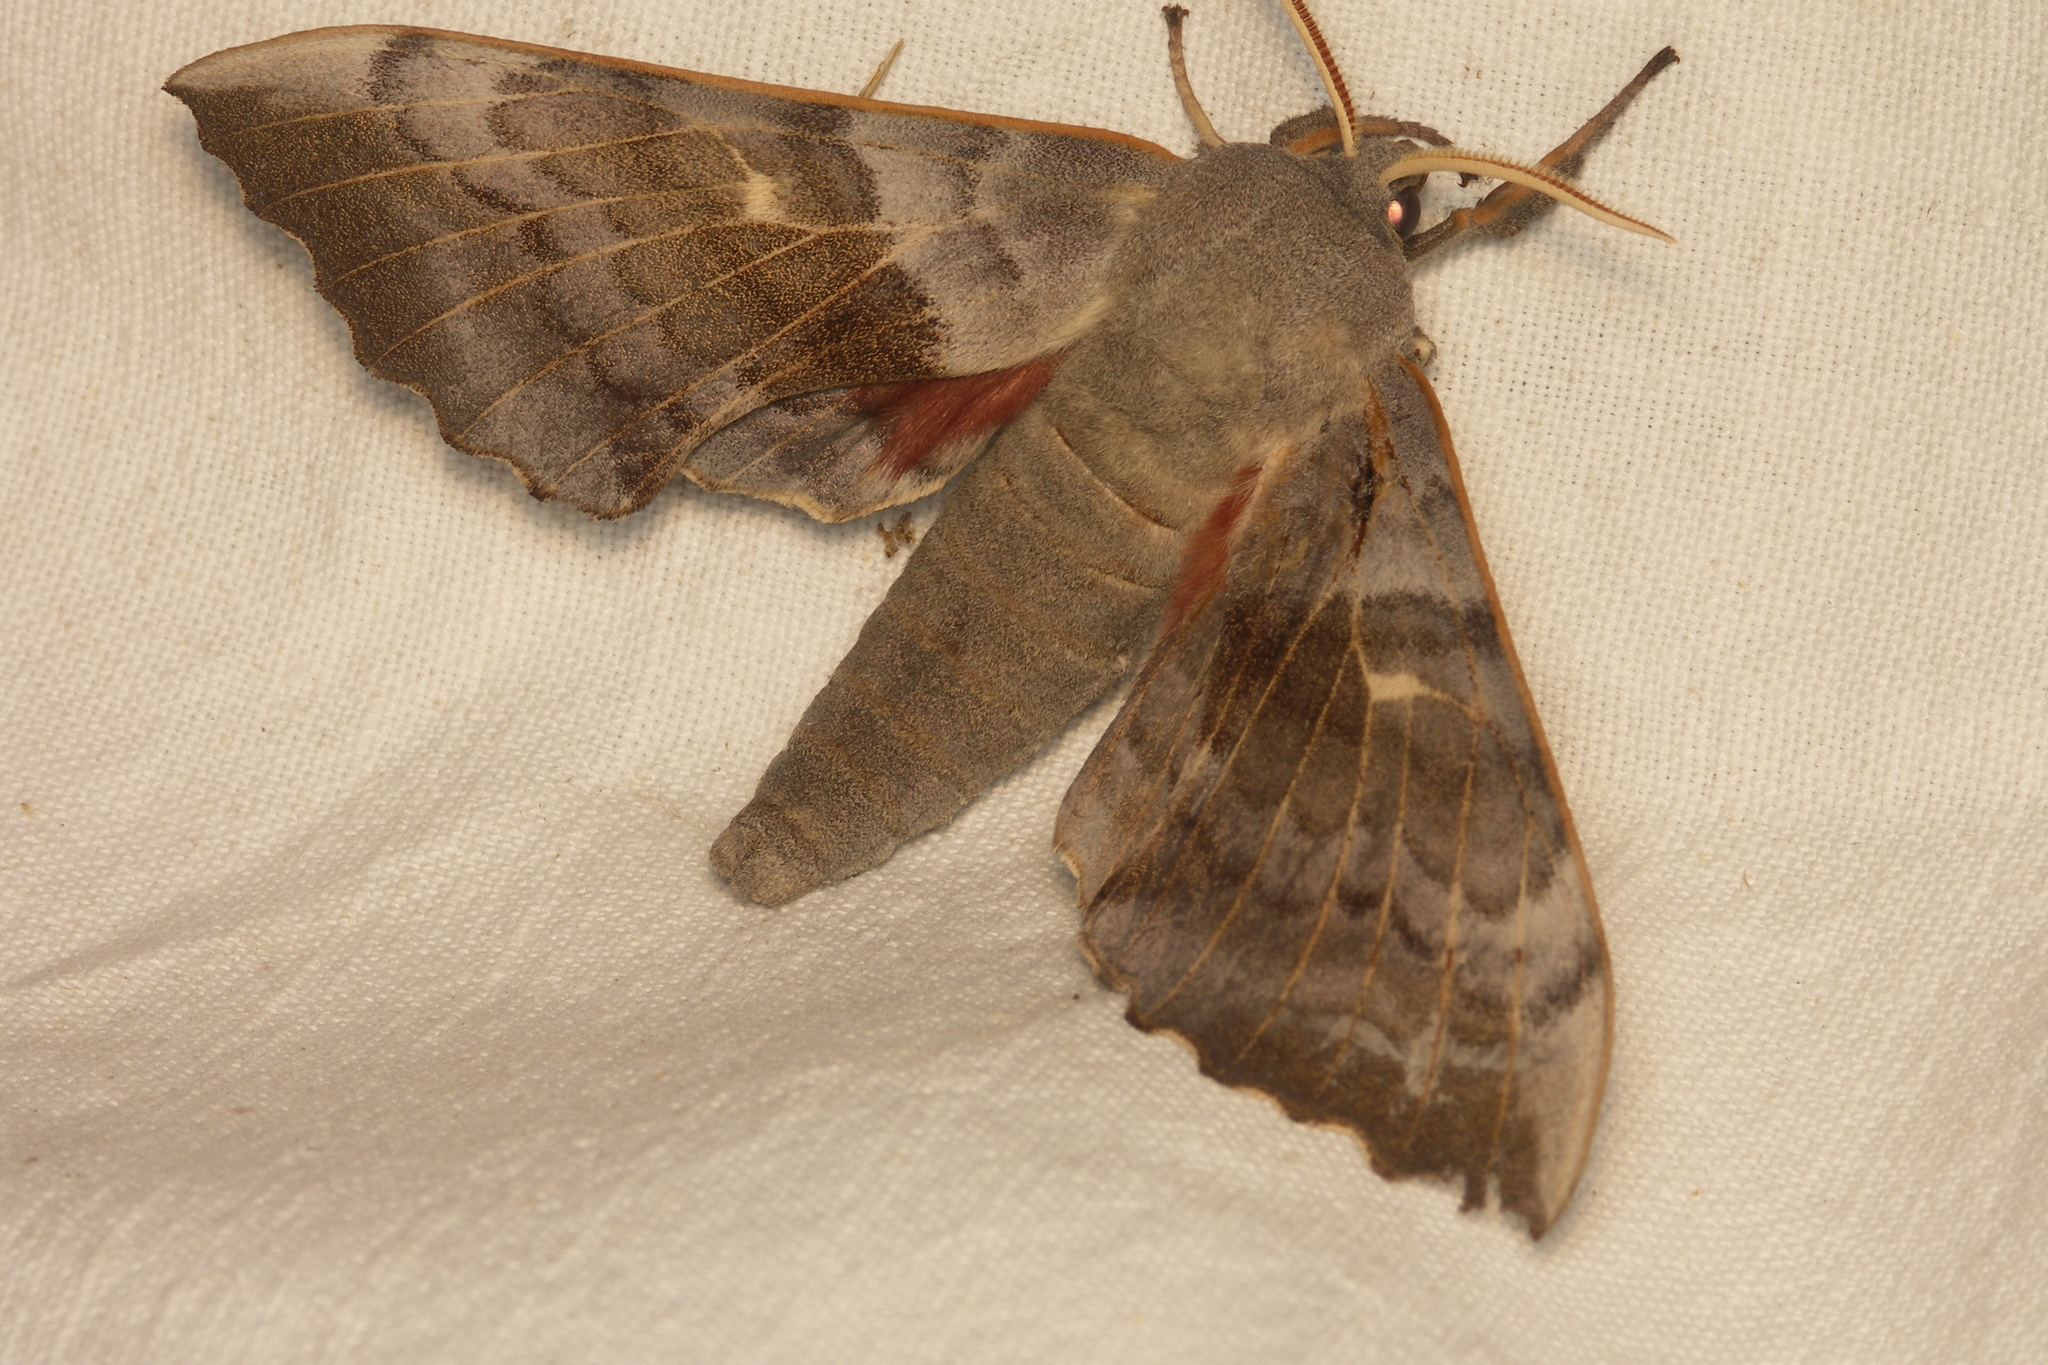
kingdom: Animalia
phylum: Arthropoda
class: Insecta
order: Lepidoptera
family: Sphingidae
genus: Laothoe
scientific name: Laothoe populi
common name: Poplar hawk-moth
